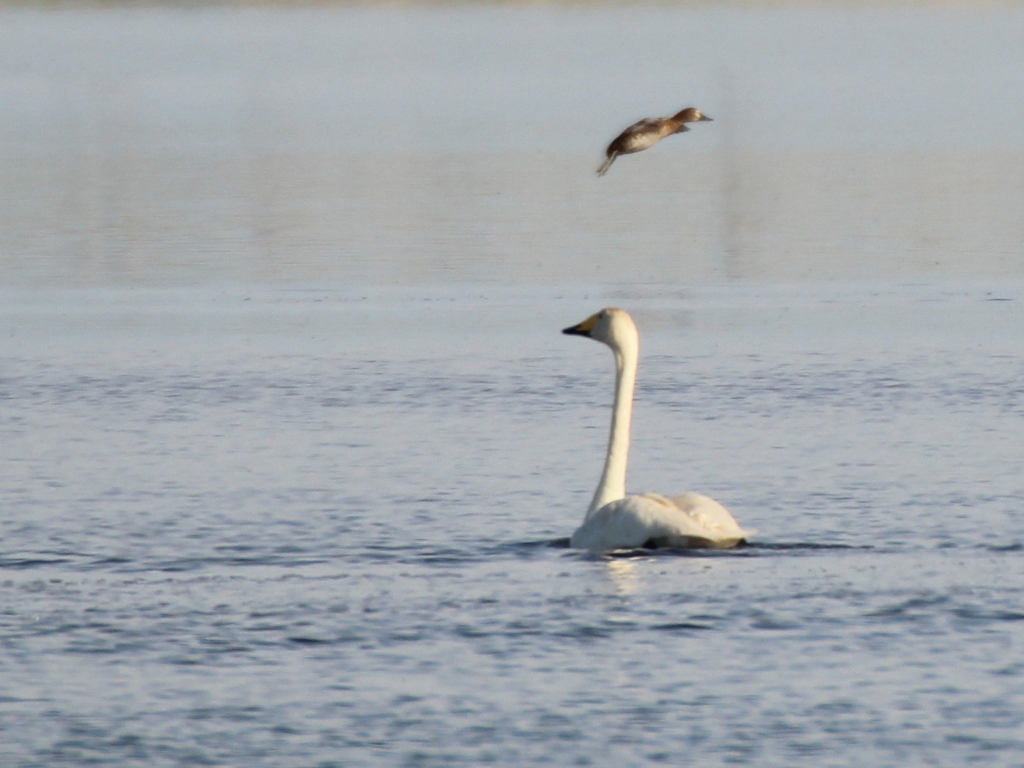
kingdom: Animalia
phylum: Chordata
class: Aves
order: Anseriformes
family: Anatidae
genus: Cygnus
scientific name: Cygnus cygnus
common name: Whooper swan
